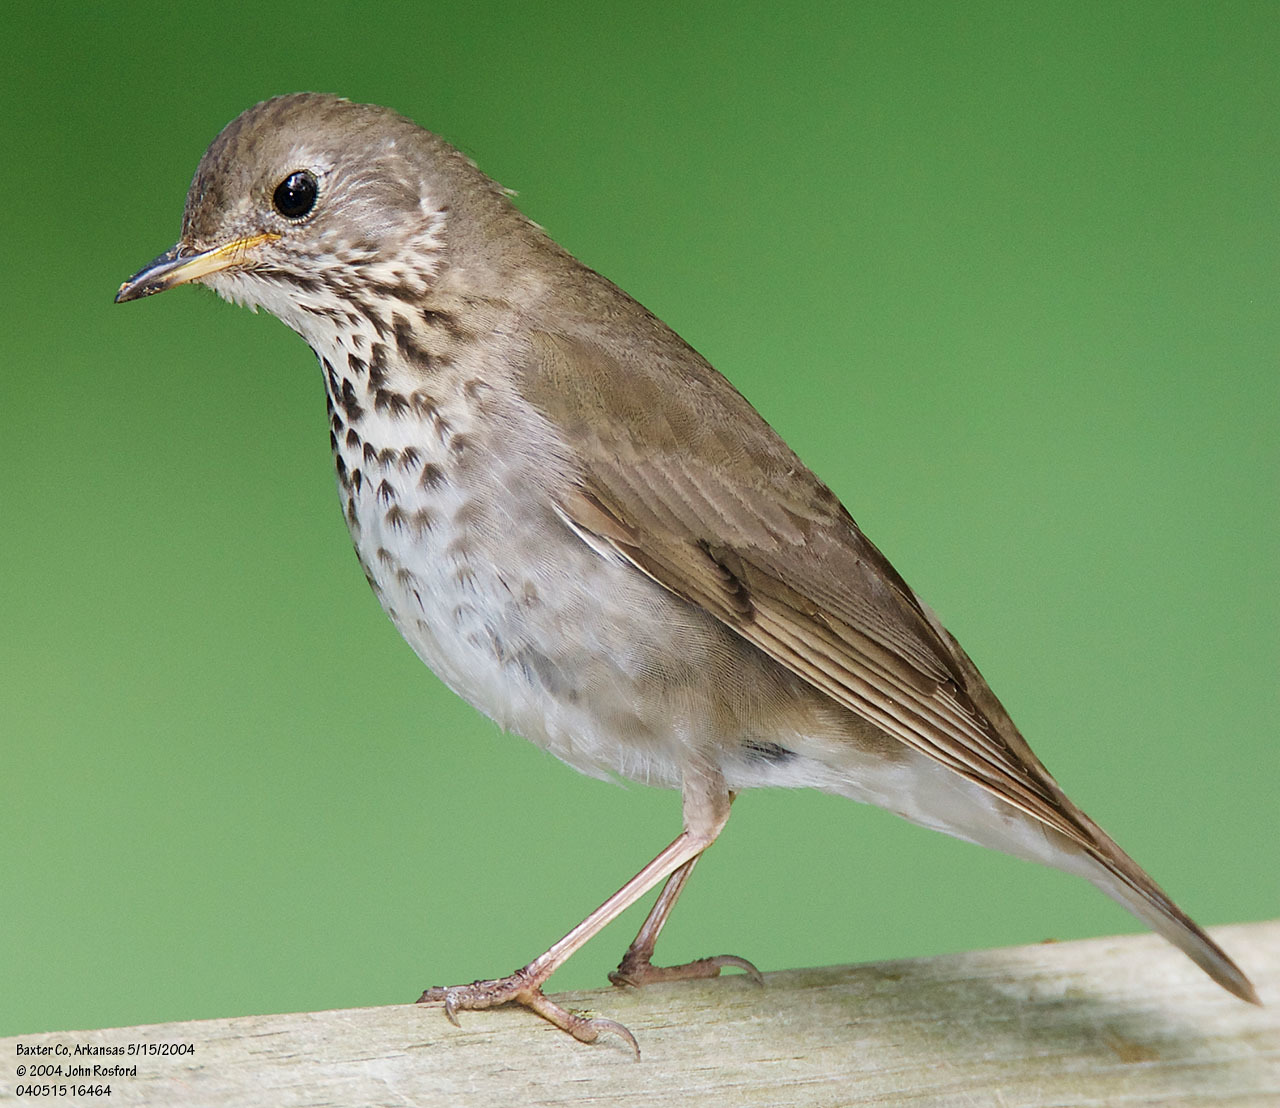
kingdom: Animalia
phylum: Chordata
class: Aves
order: Passeriformes
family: Turdidae
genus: Catharus
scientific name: Catharus minimus
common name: Grey-cheeked thrush
